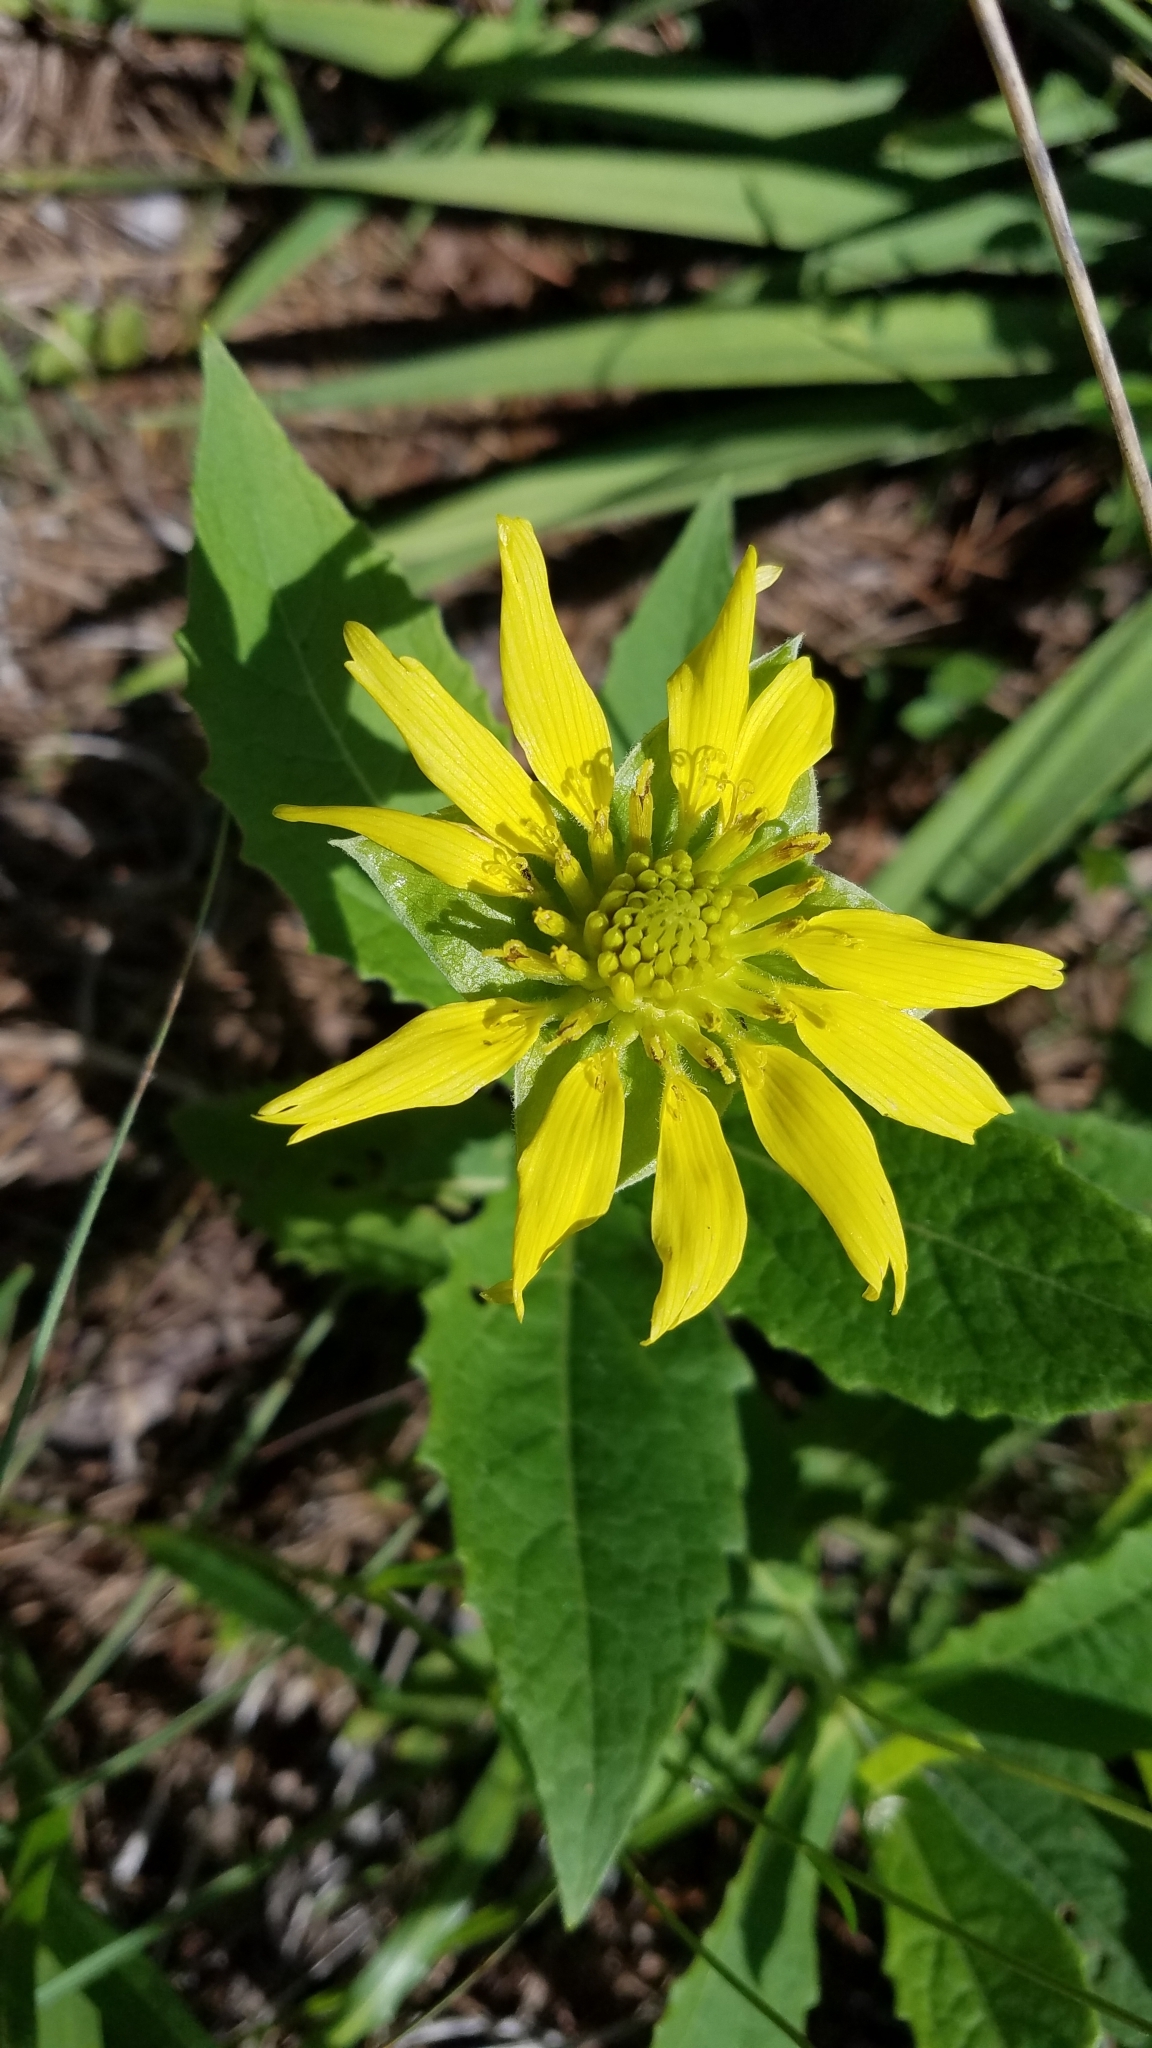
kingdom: Plantae
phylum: Tracheophyta
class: Magnoliopsida
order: Asterales
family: Asteraceae
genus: Tetragonotheca
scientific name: Tetragonotheca helianthoides
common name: Pineland-ginseng
